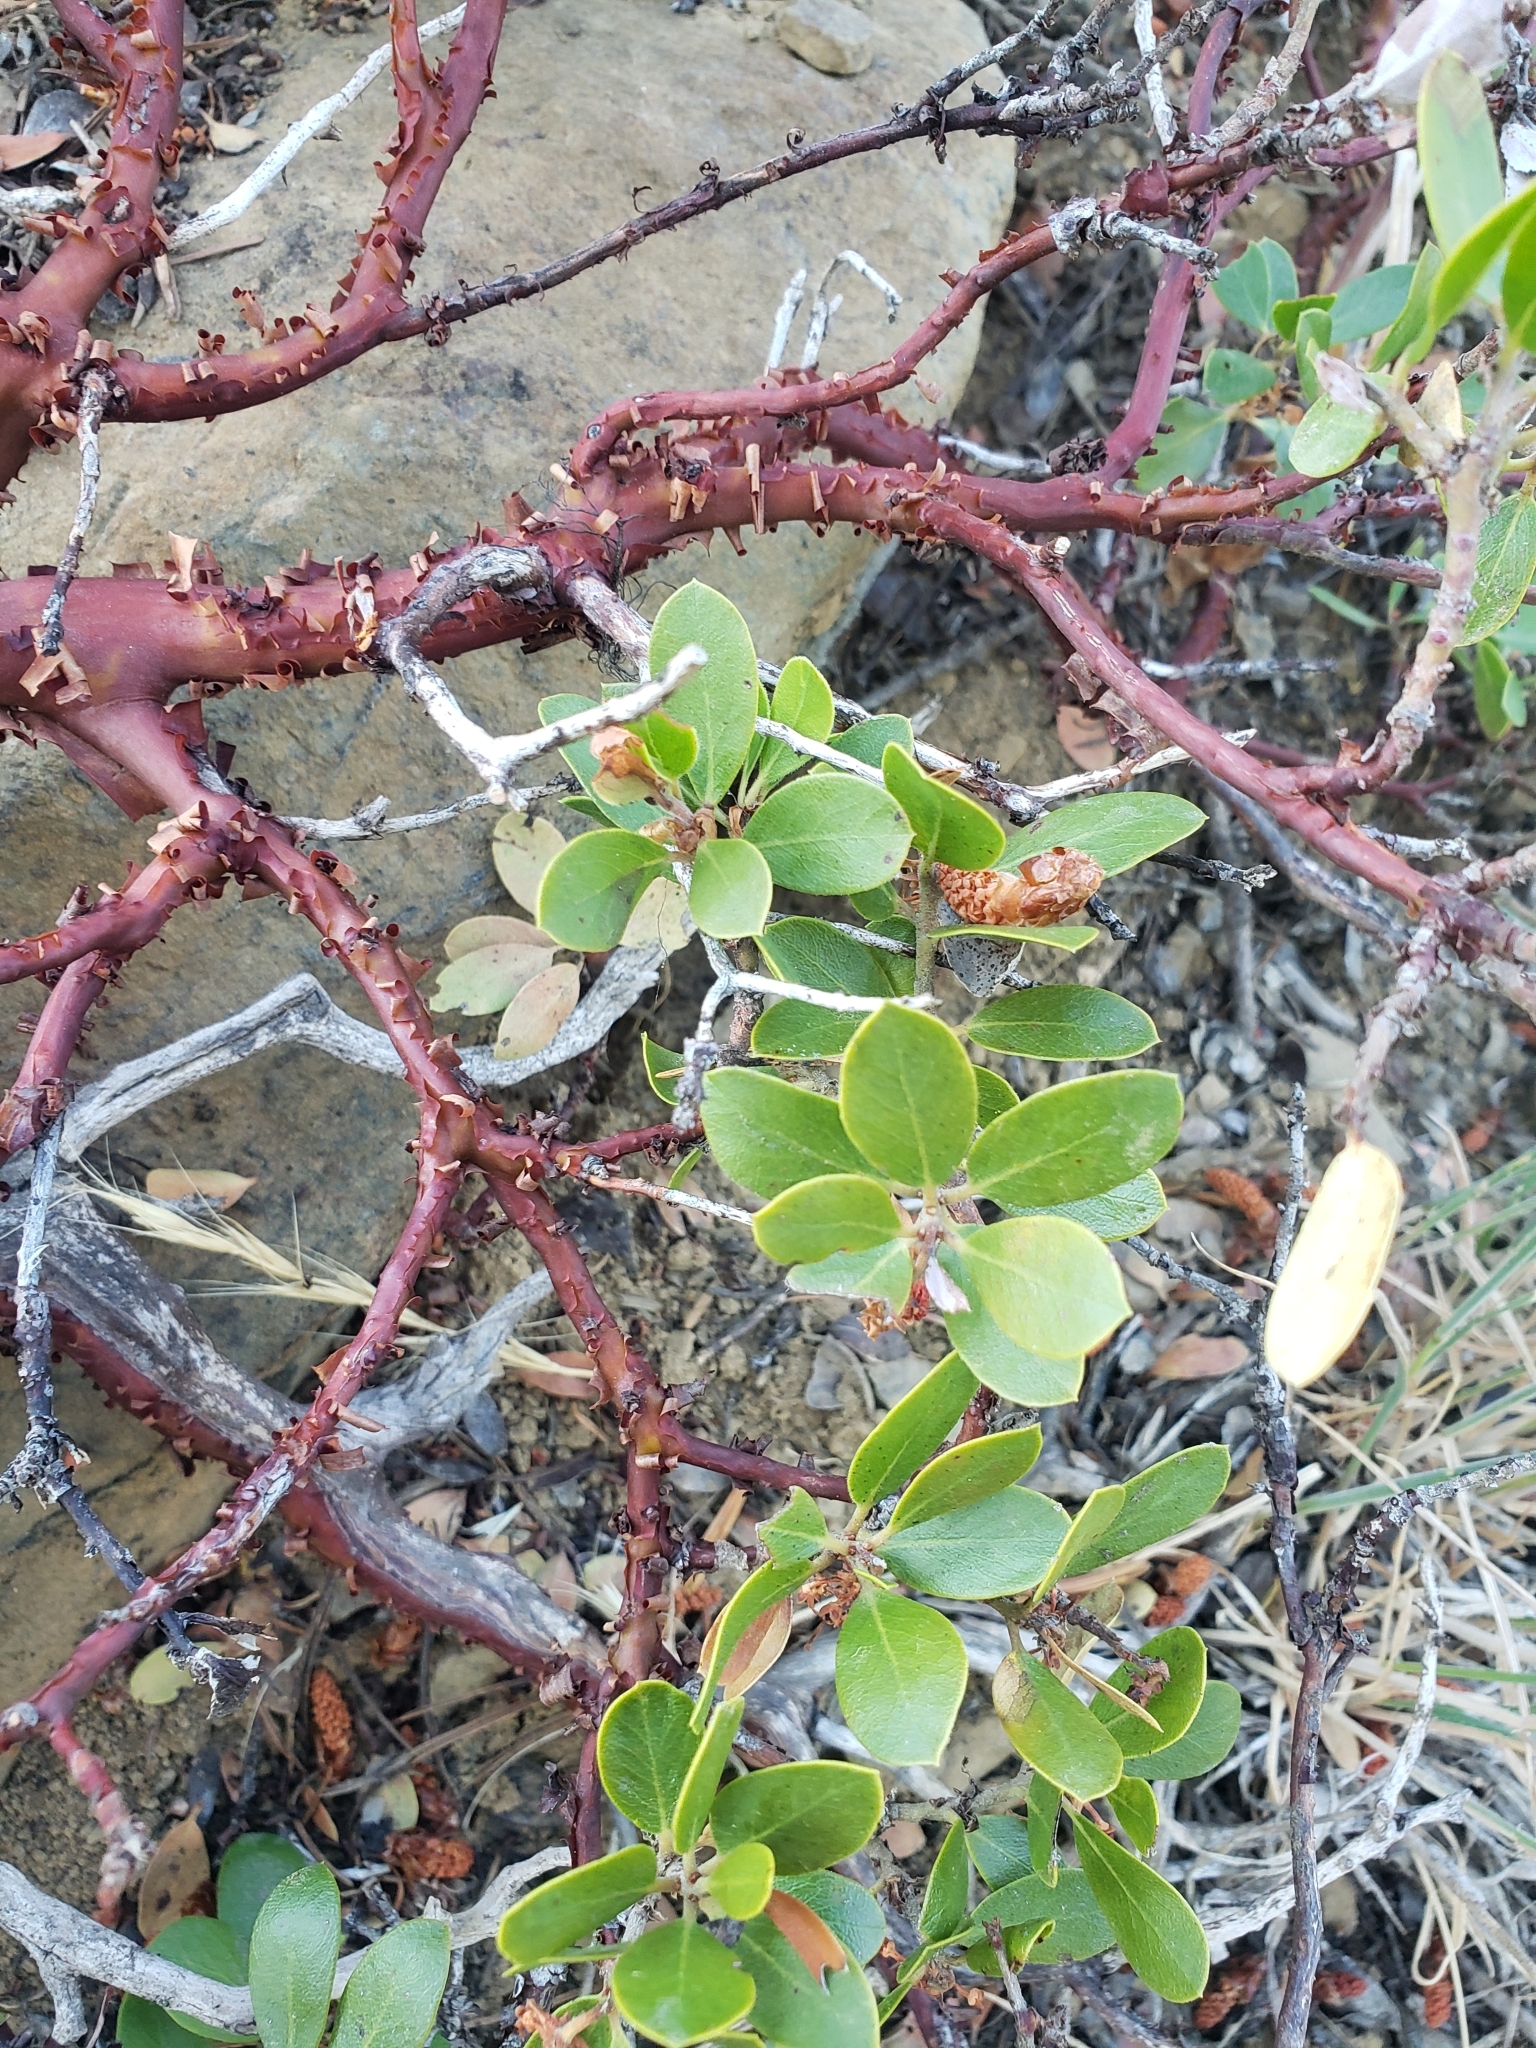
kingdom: Plantae
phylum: Tracheophyta
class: Magnoliopsida
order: Ericales
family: Ericaceae
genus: Arctostaphylos
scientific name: Arctostaphylos nevadensis
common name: Pinemat manzanita
